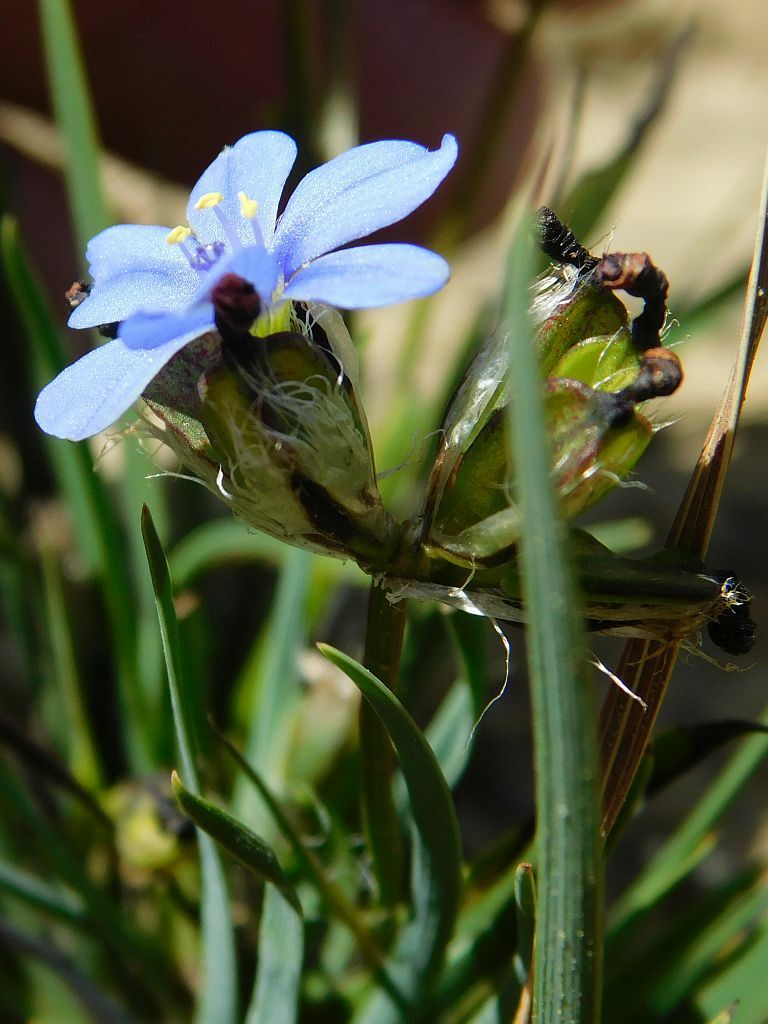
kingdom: Plantae
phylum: Tracheophyta
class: Liliopsida
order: Asparagales
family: Iridaceae
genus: Aristea
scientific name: Aristea africana
